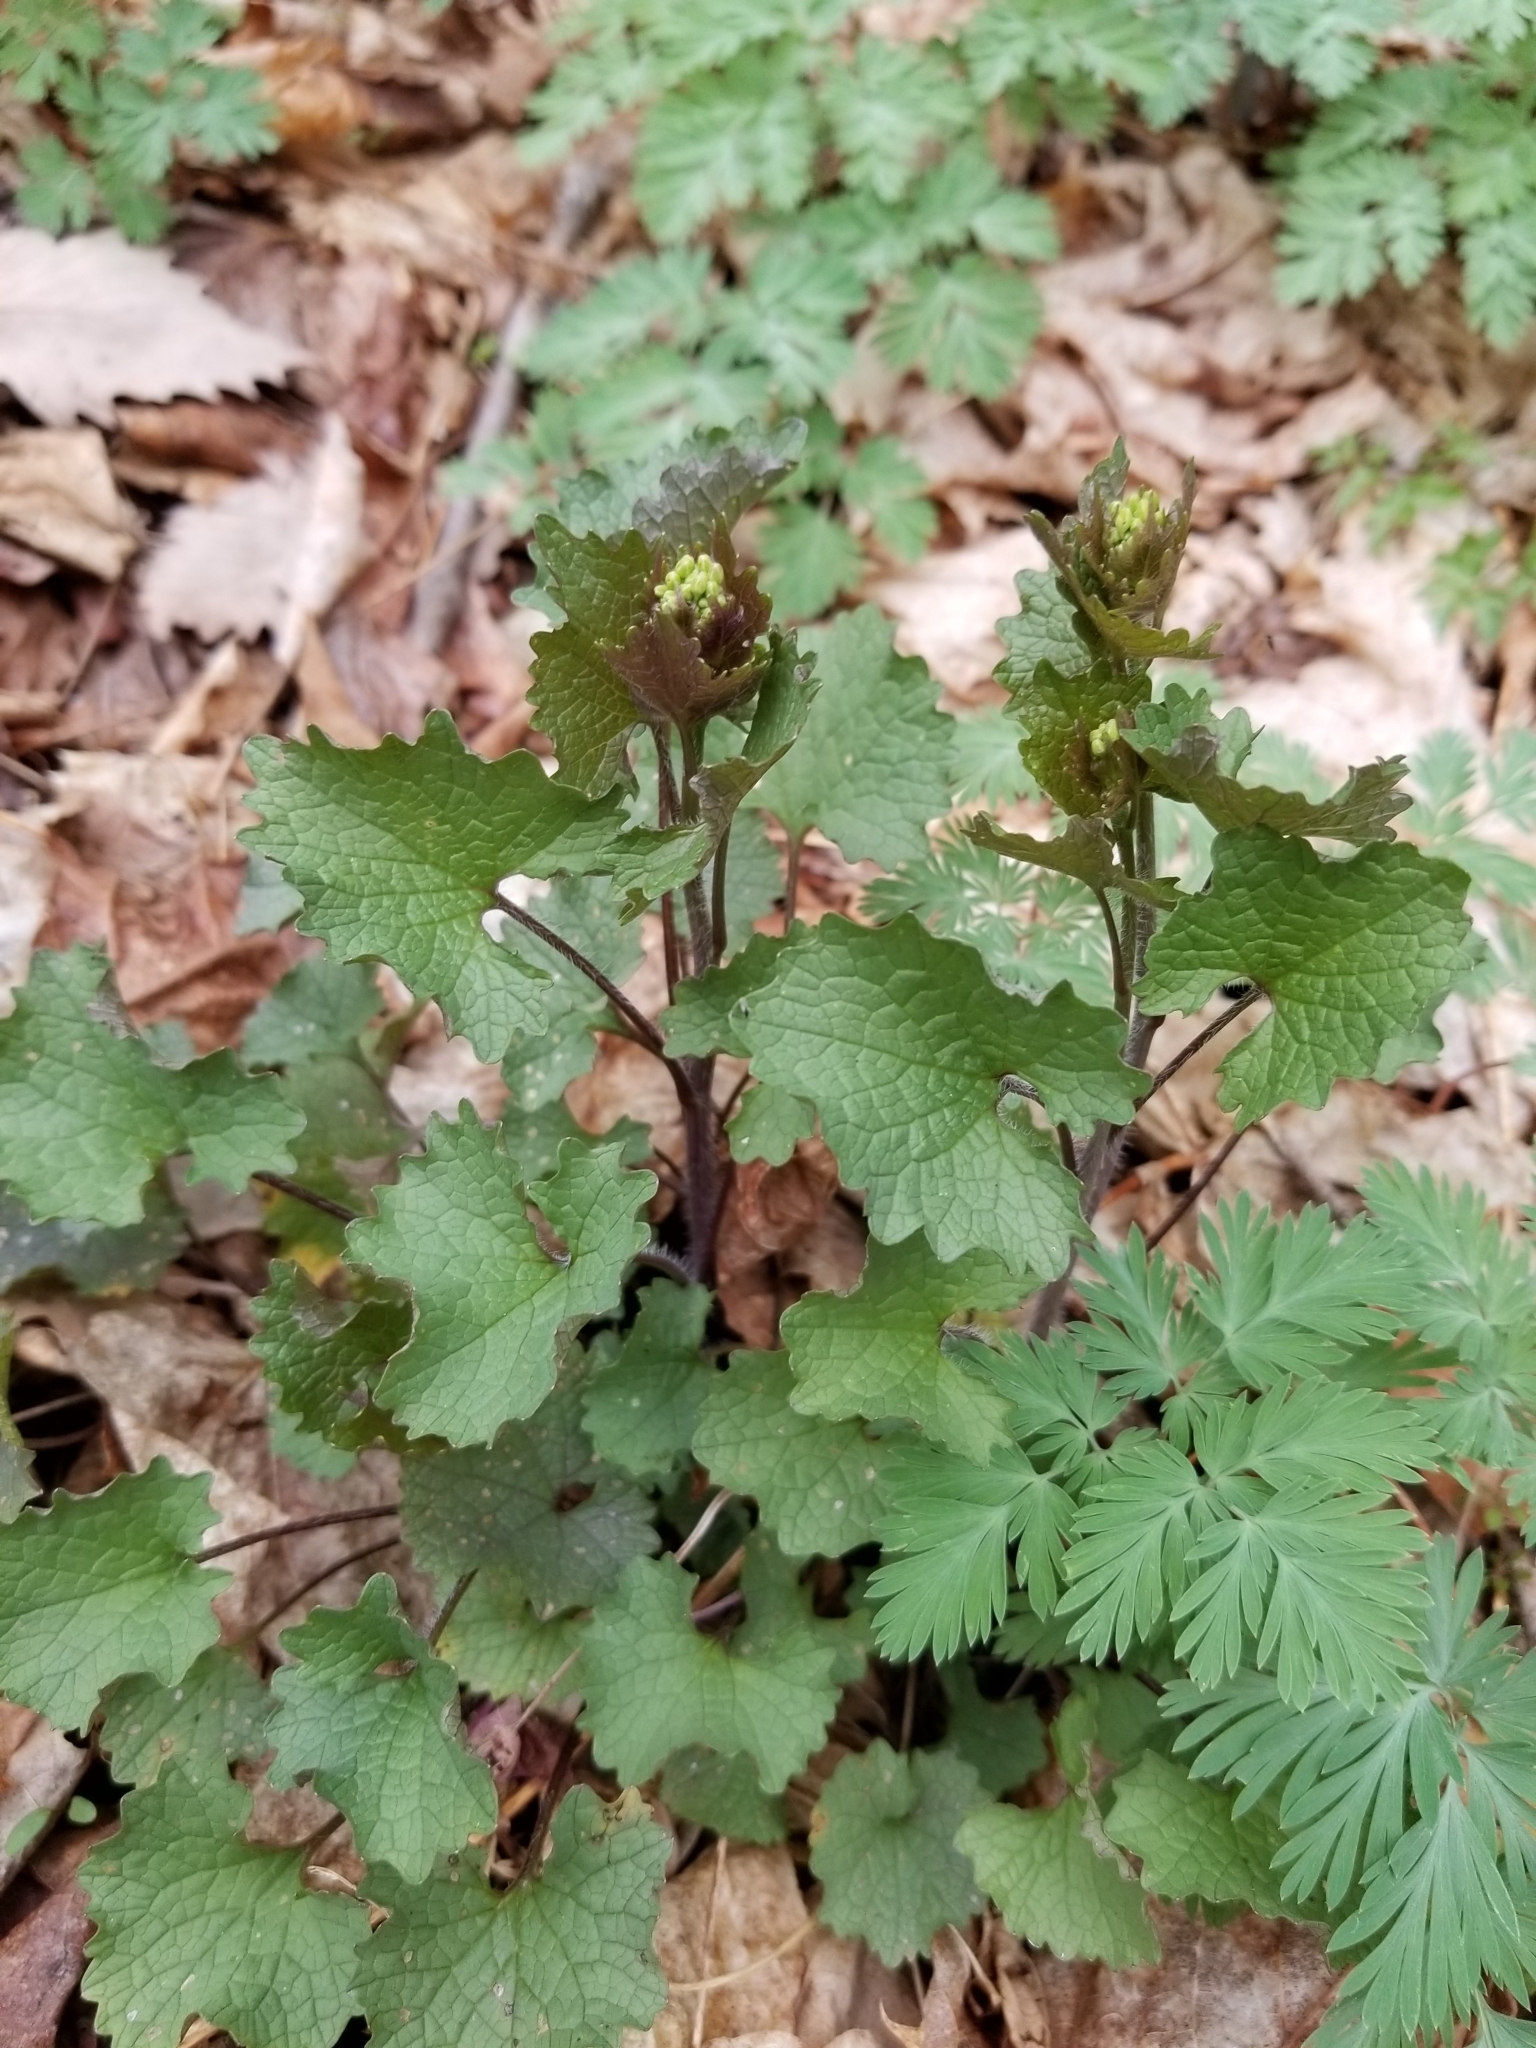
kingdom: Plantae
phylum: Tracheophyta
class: Magnoliopsida
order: Brassicales
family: Brassicaceae
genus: Alliaria
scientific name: Alliaria petiolata
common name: Garlic mustard
